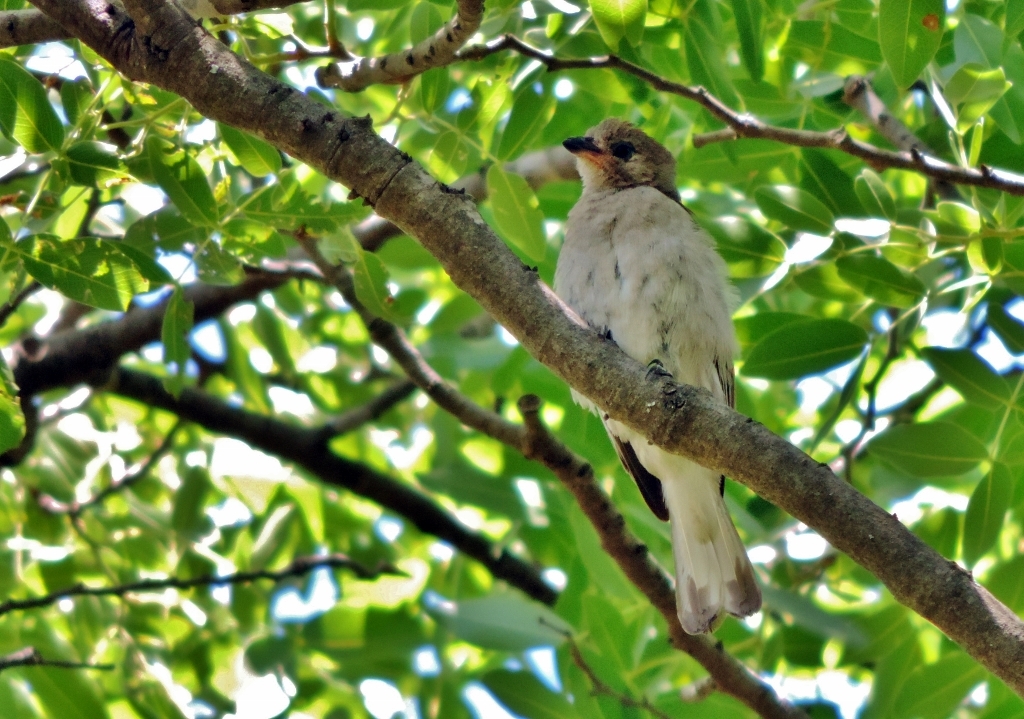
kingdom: Animalia
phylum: Chordata
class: Aves
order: Piciformes
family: Indicatoridae
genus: Indicator
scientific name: Indicator minor
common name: Lesser honeyguide
